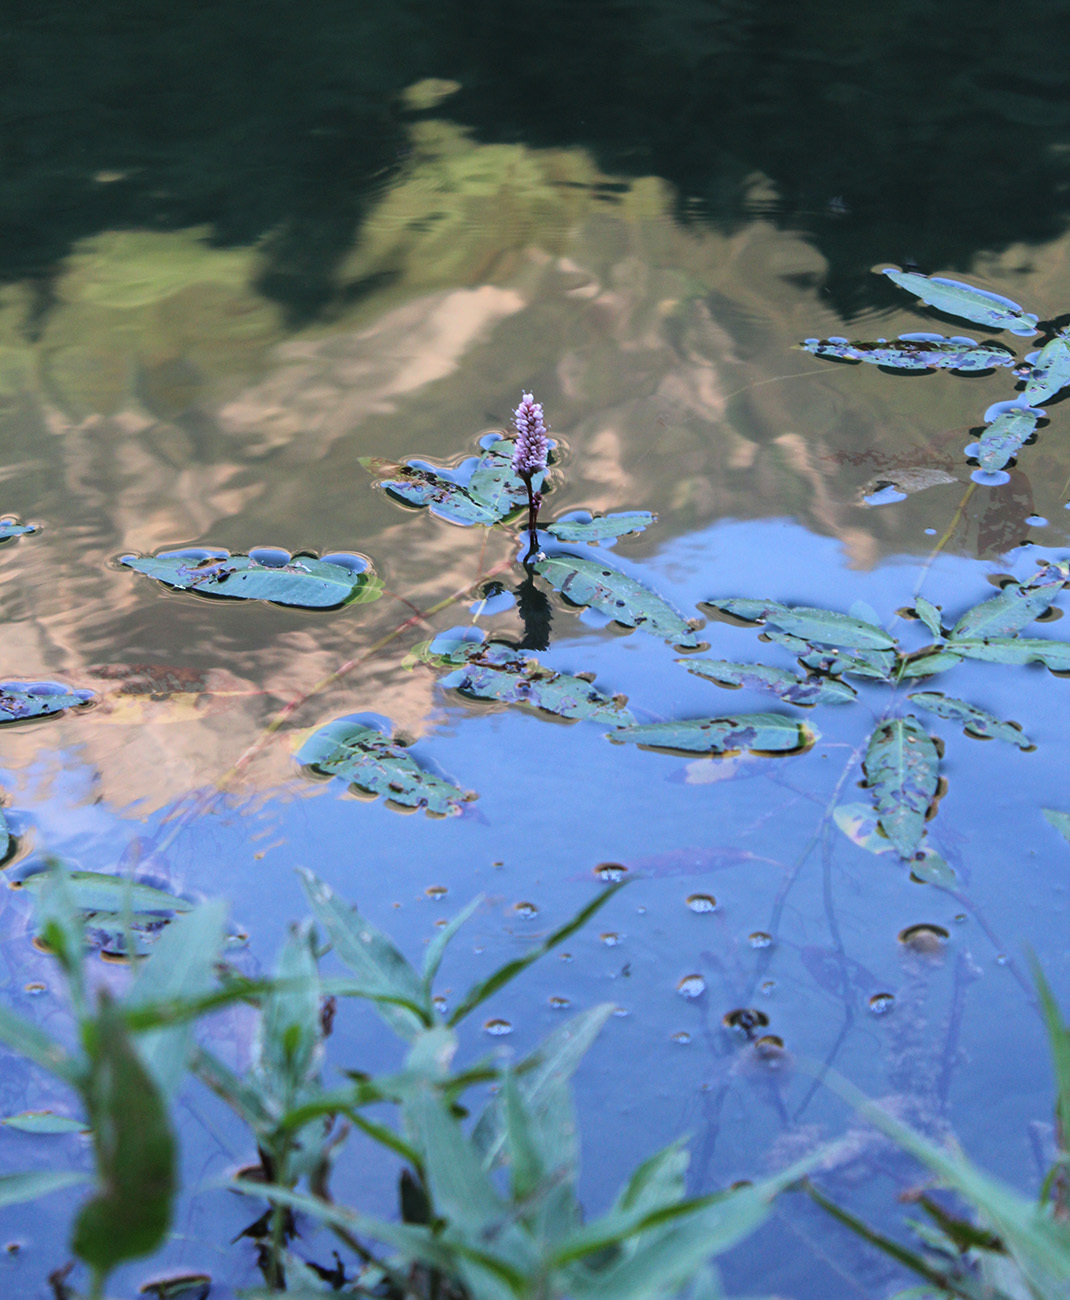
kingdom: Plantae
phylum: Tracheophyta
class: Magnoliopsida
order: Caryophyllales
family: Polygonaceae
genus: Persicaria
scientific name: Persicaria amphibia
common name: Amphibious bistort
